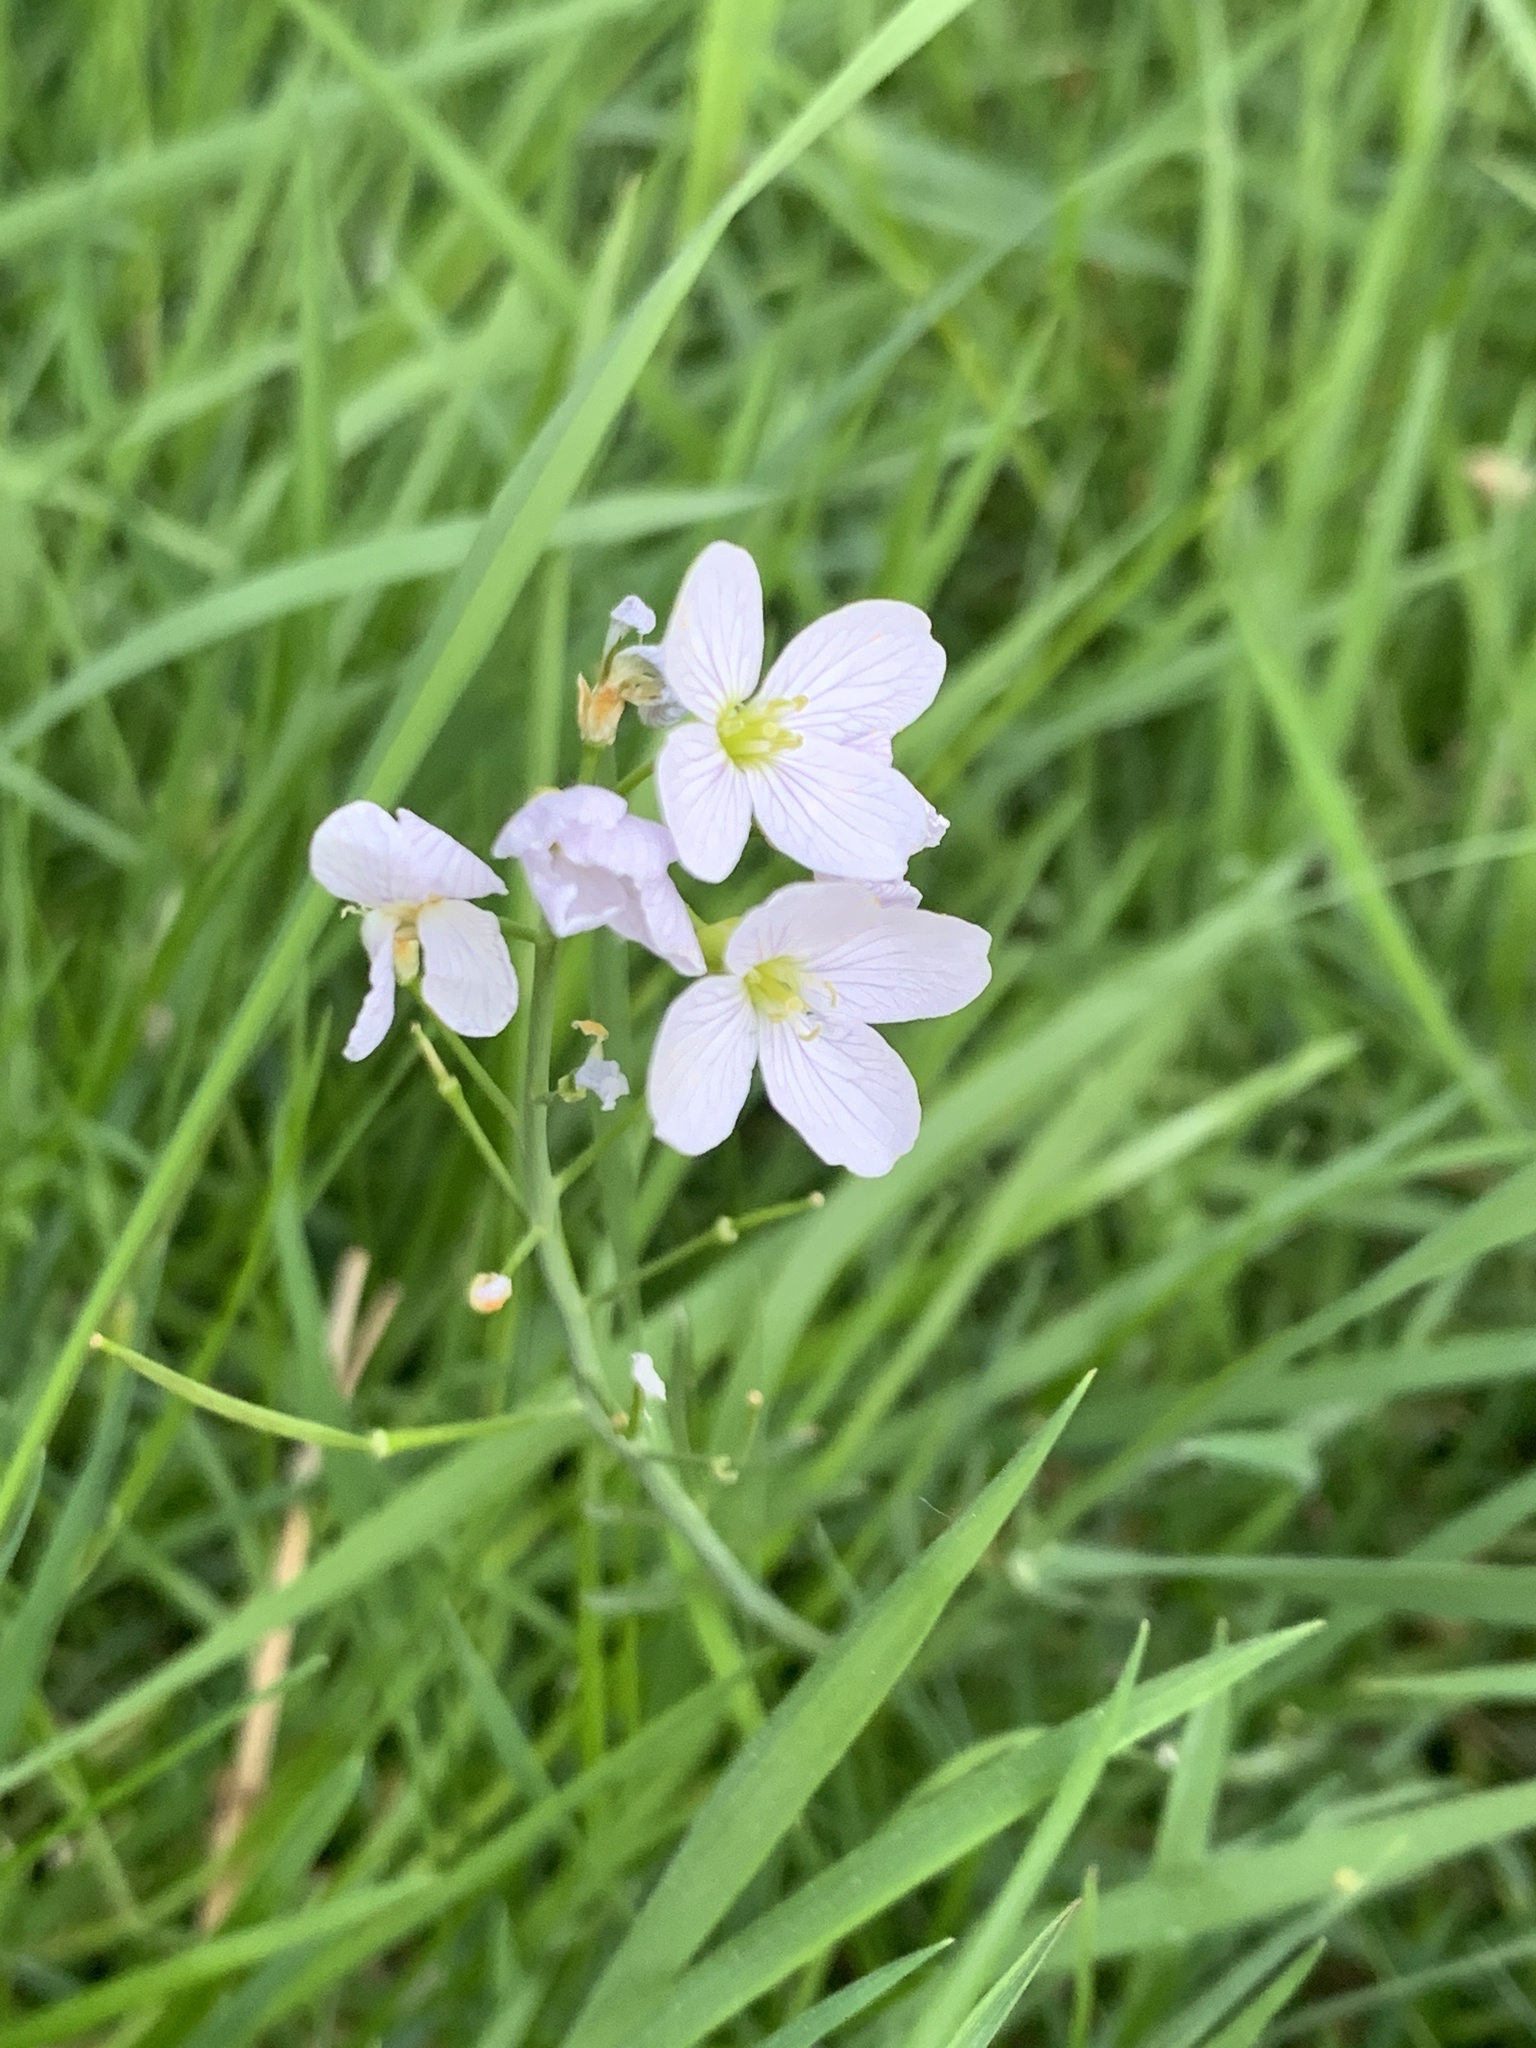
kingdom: Plantae
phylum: Tracheophyta
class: Magnoliopsida
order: Brassicales
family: Brassicaceae
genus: Cardamine
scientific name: Cardamine pratensis
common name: Cuckoo flower
